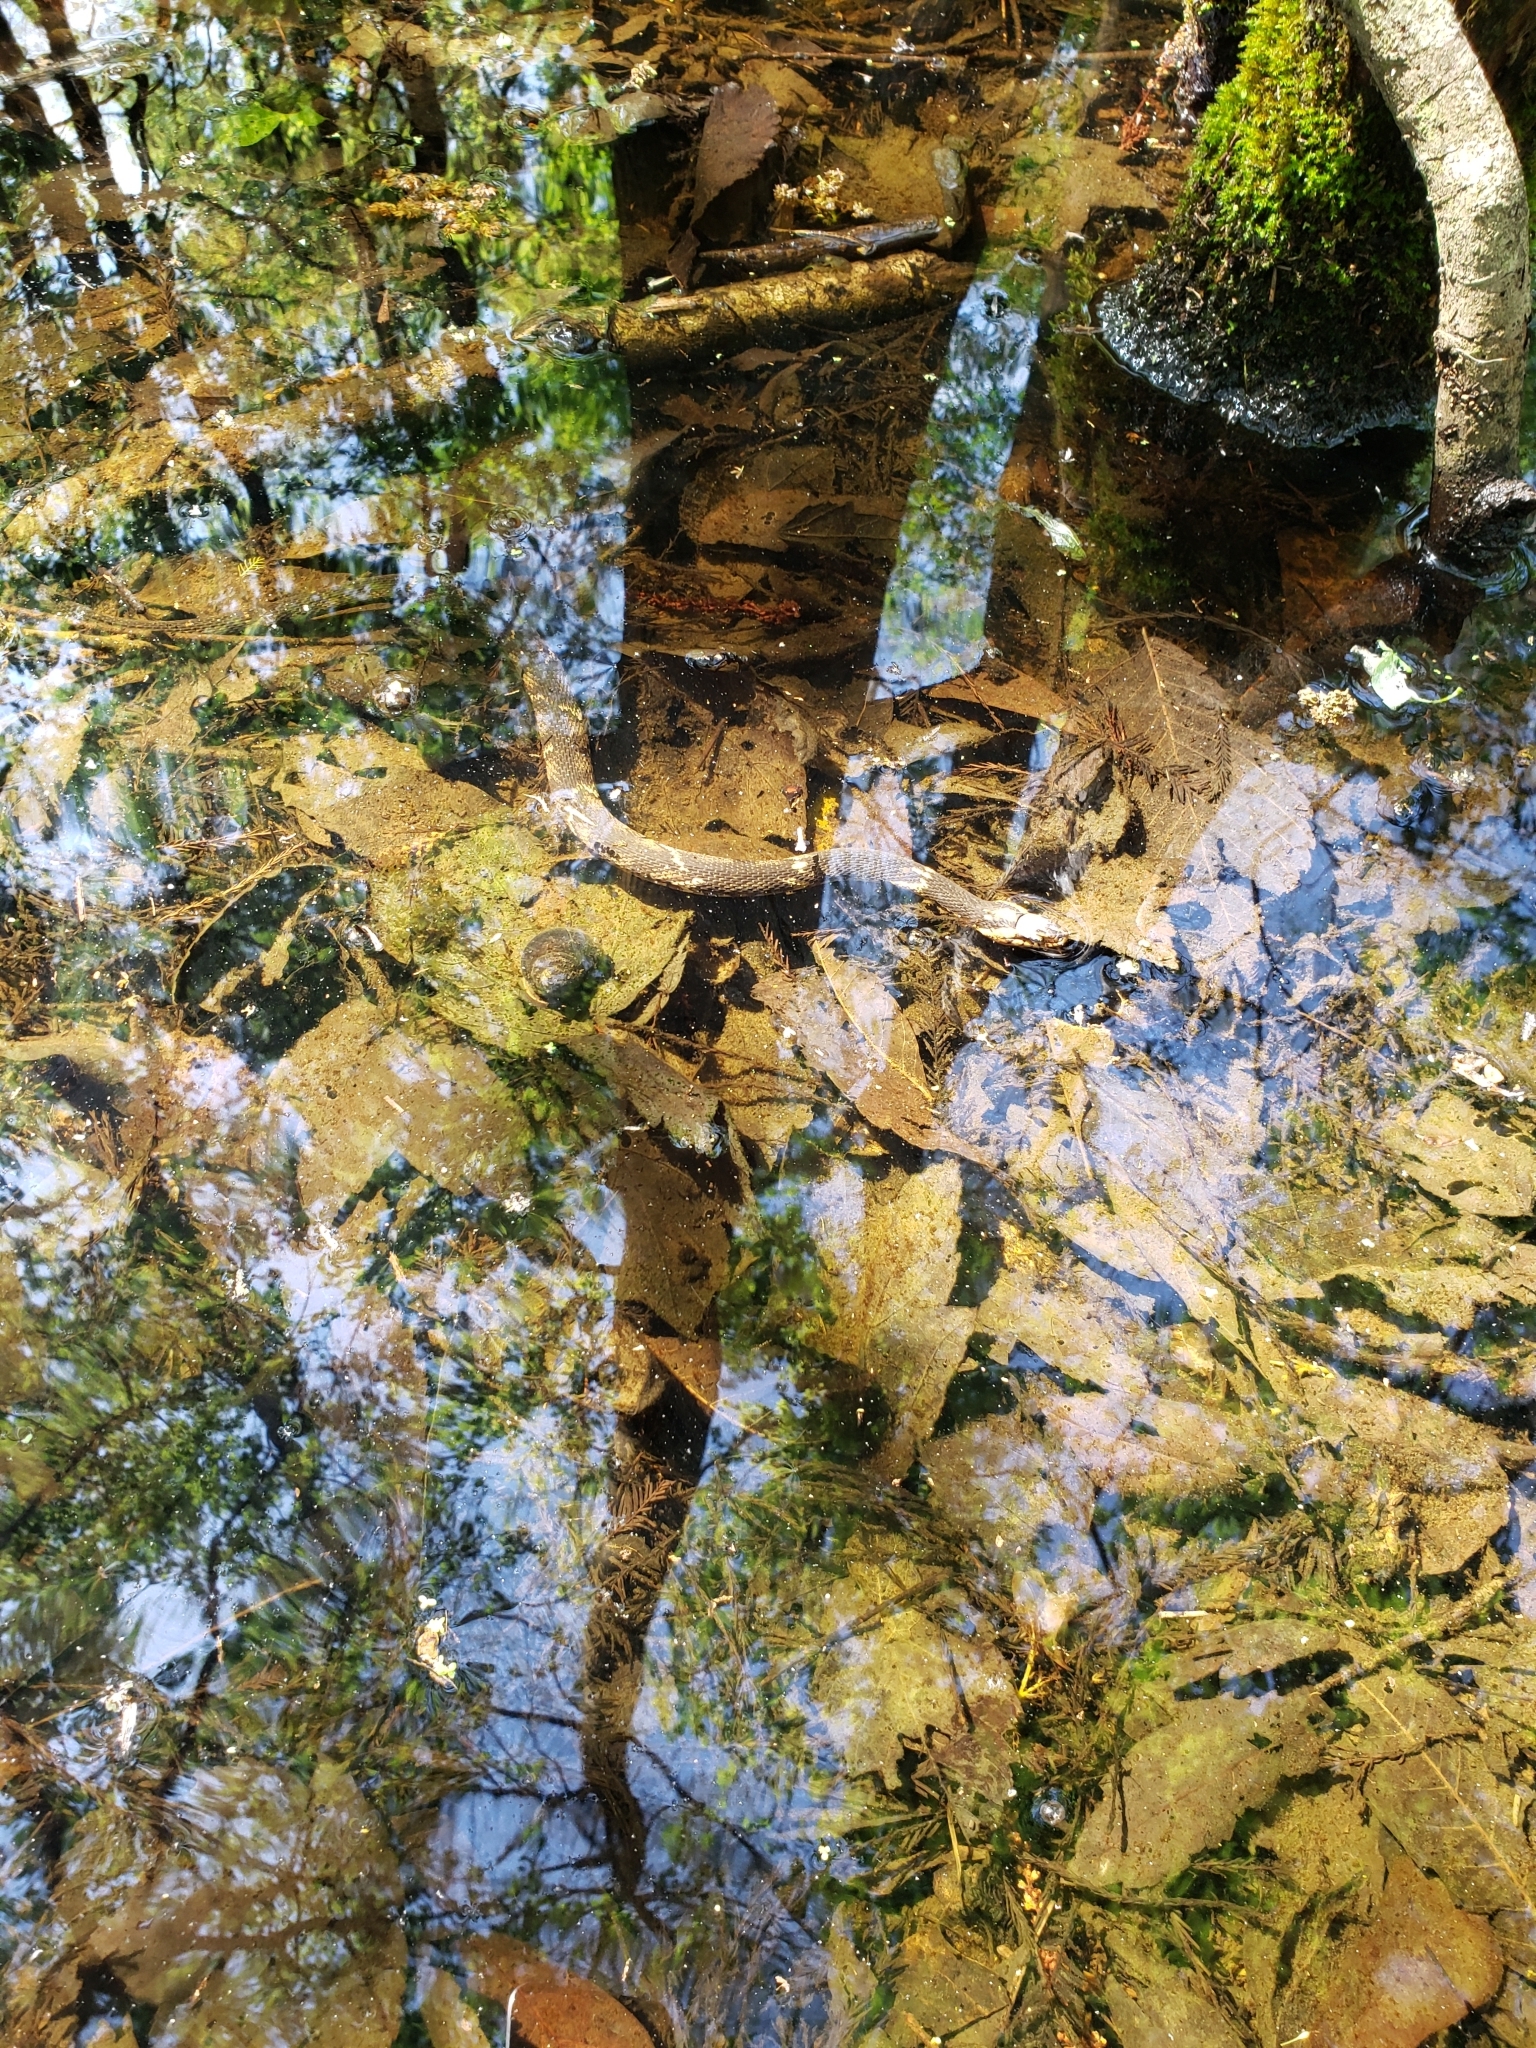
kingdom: Animalia
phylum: Chordata
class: Squamata
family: Colubridae
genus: Nerodia
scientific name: Nerodia fasciata
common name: Southern water snake
